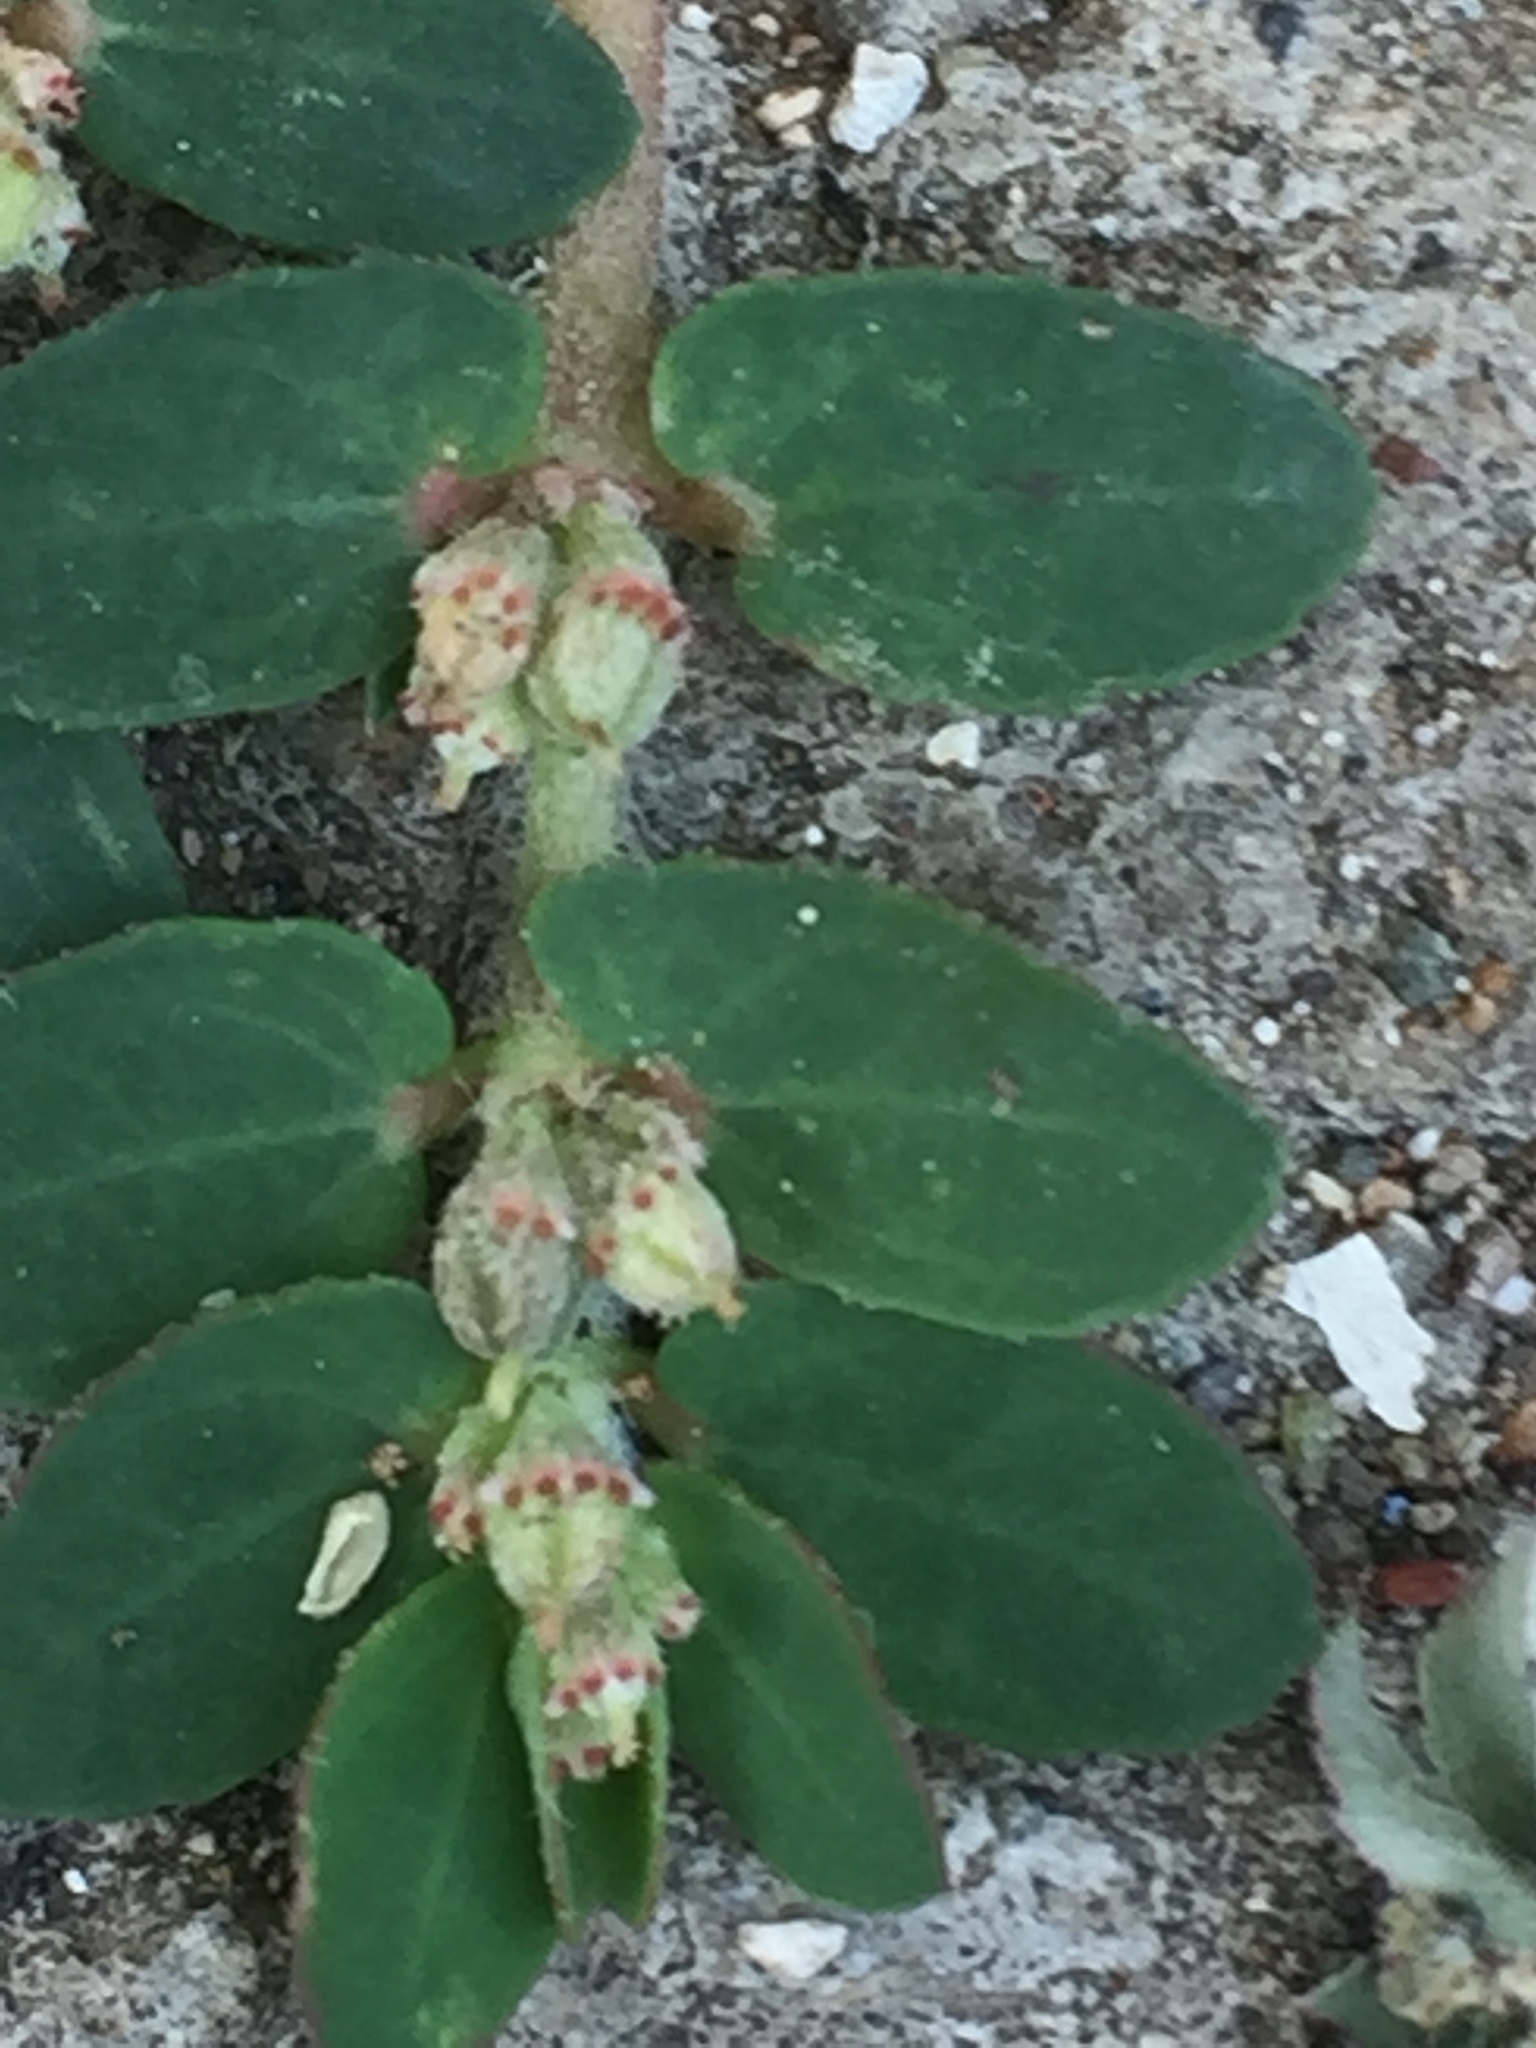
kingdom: Plantae
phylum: Tracheophyta
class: Magnoliopsida
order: Malpighiales
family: Euphorbiaceae
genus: Euphorbia
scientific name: Euphorbia thymifolia
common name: Gulf sandmat
